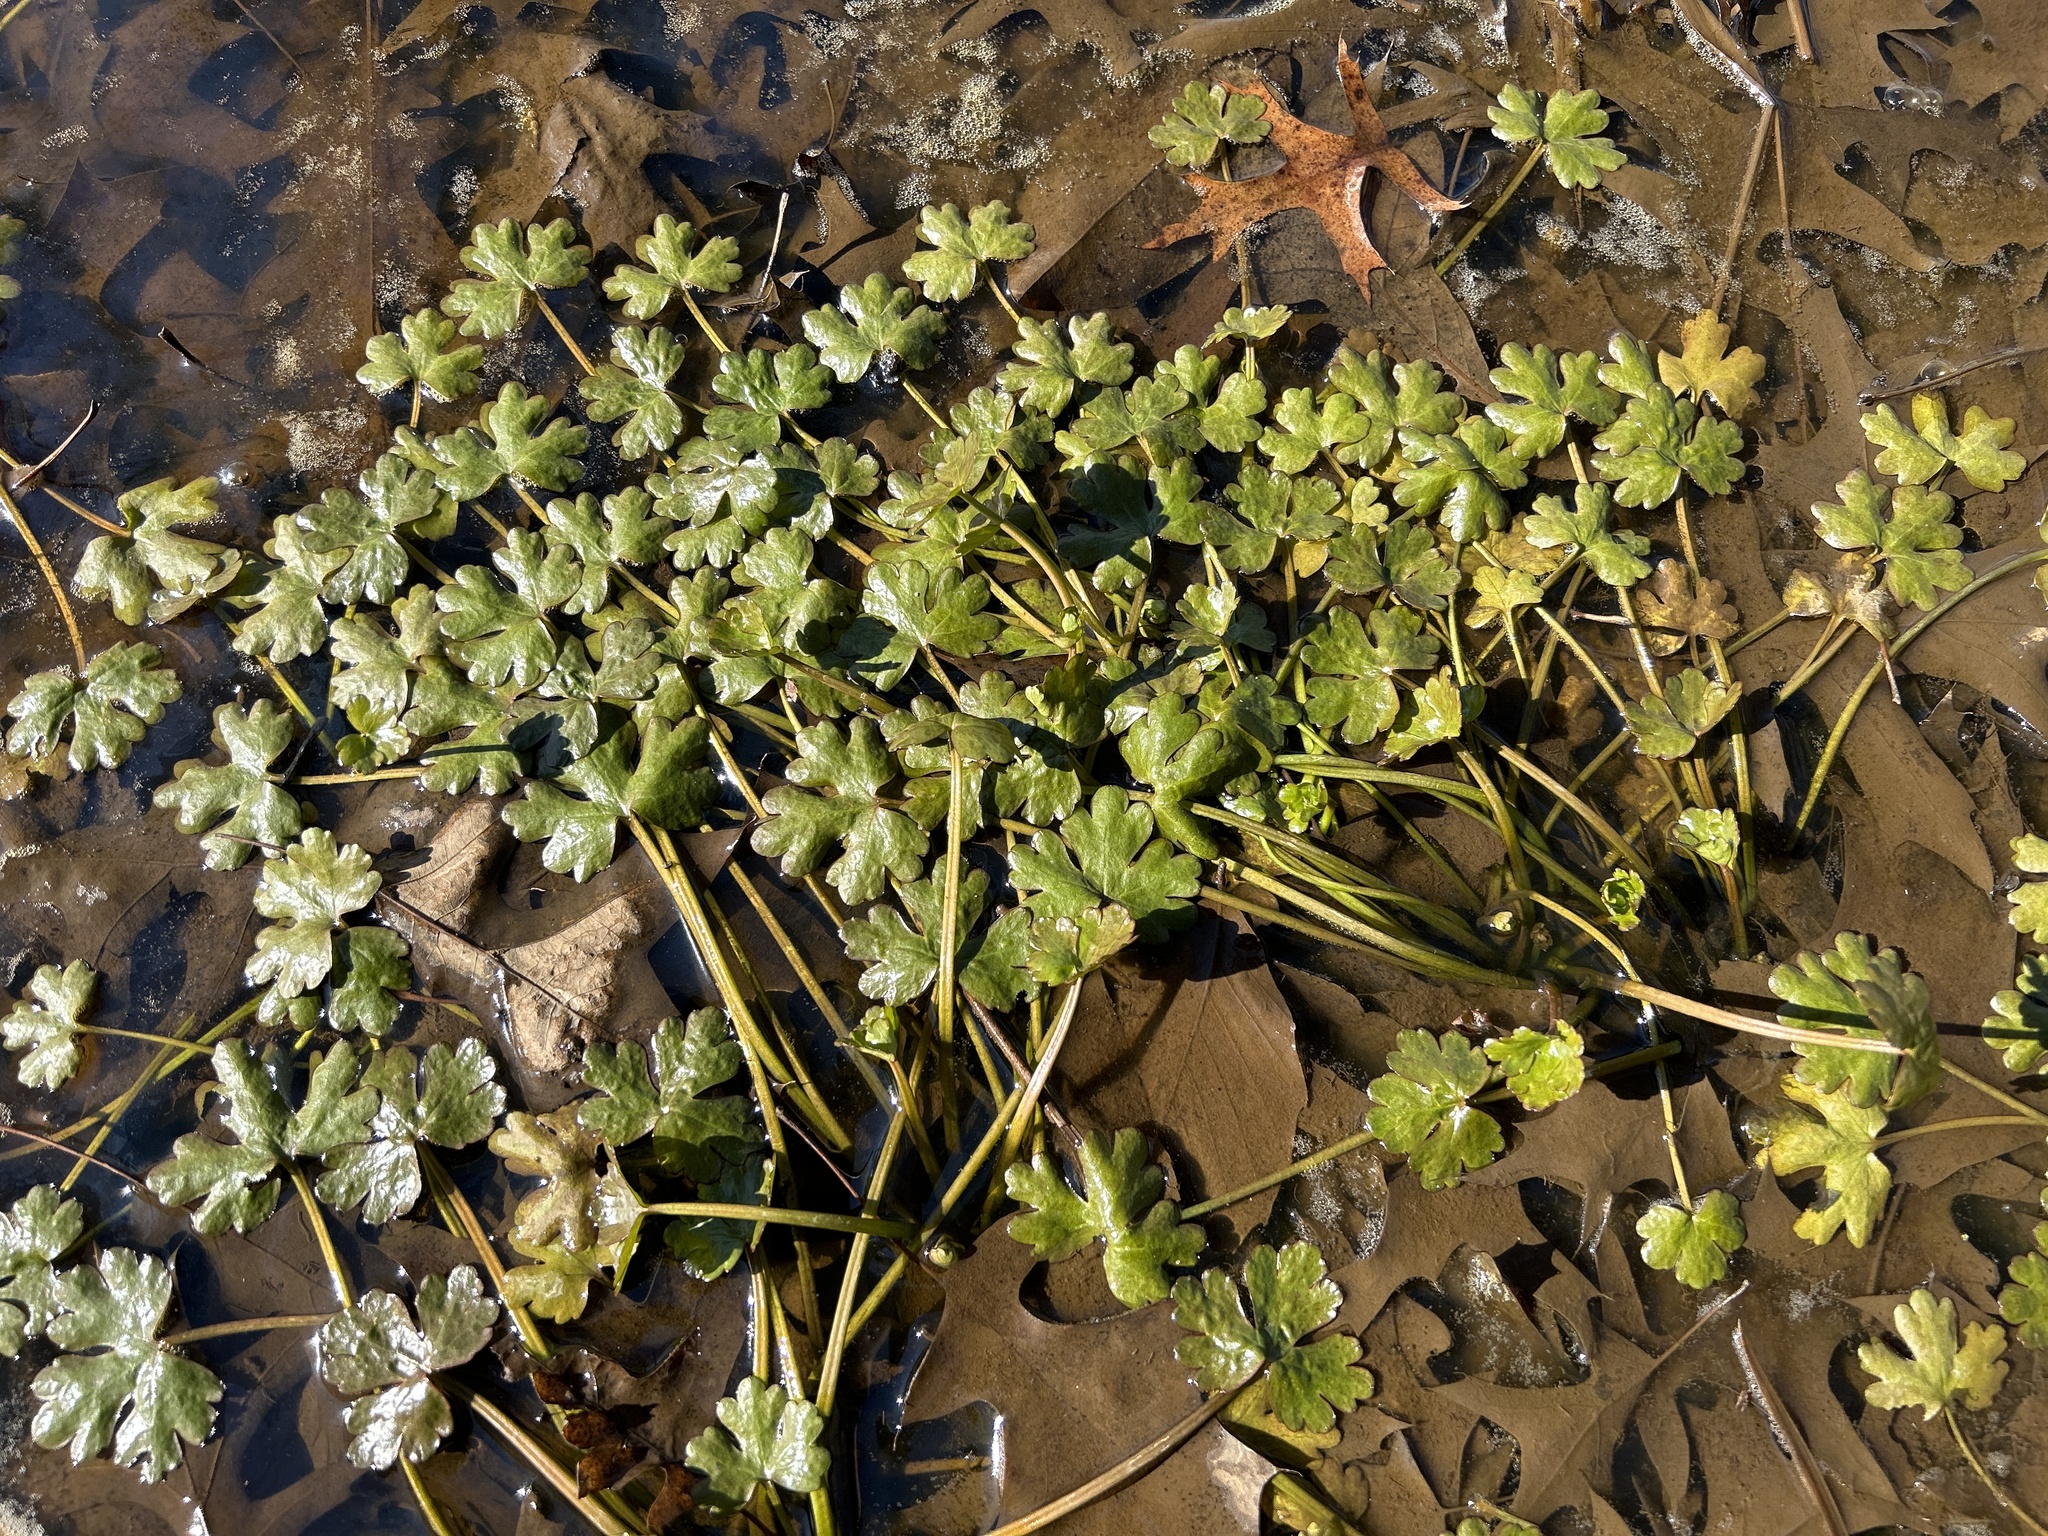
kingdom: Plantae
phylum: Tracheophyta
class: Magnoliopsida
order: Ranunculales
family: Ranunculaceae
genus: Ranunculus
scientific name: Ranunculus sceleratus
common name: Celery-leaved buttercup
